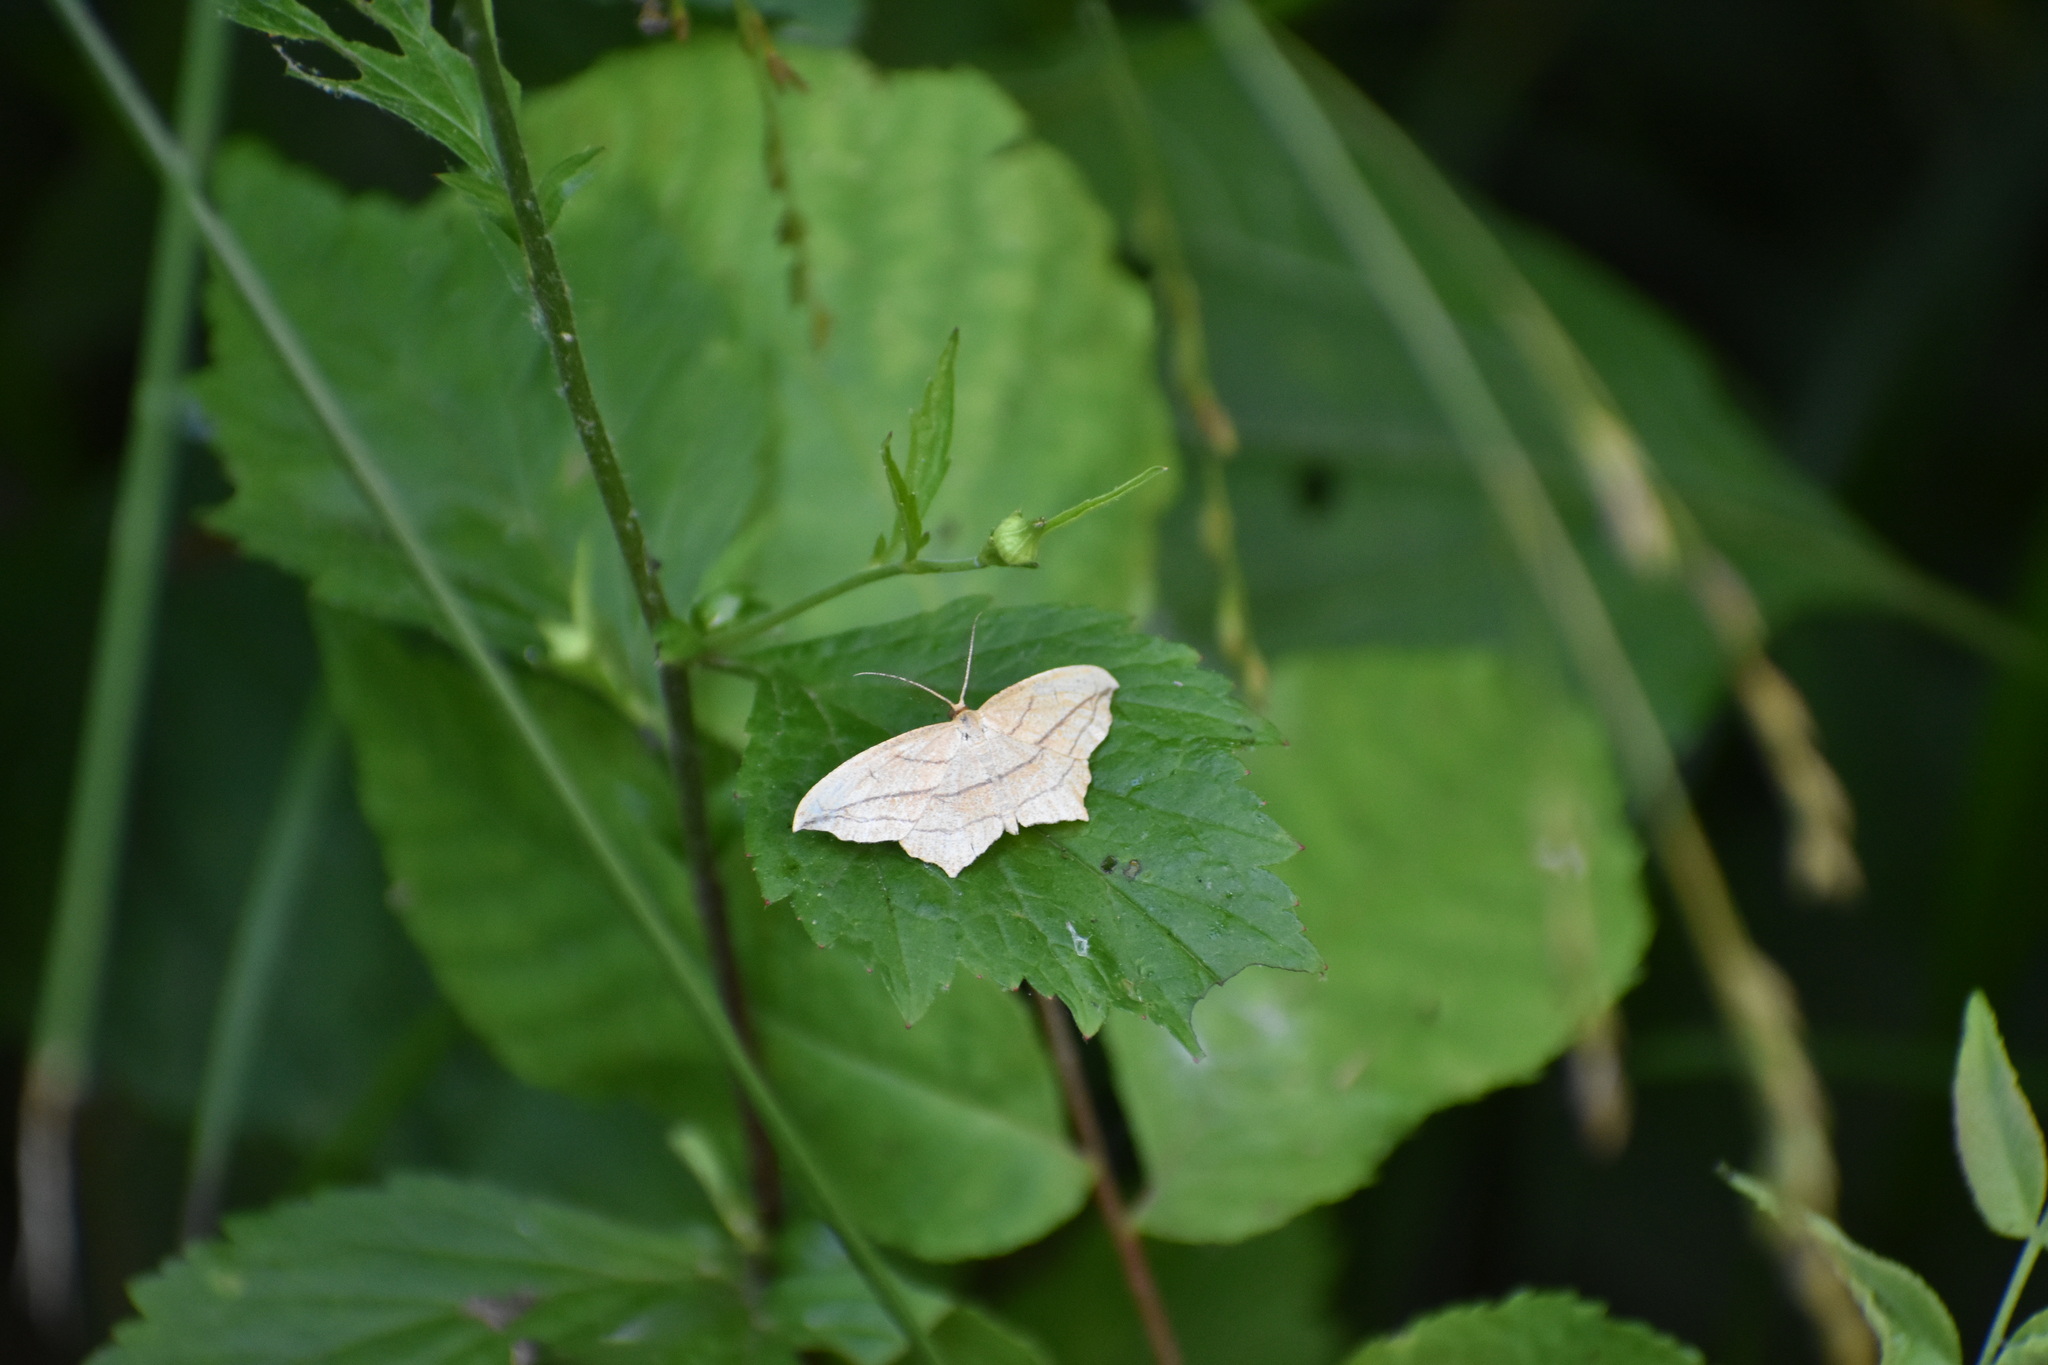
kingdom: Animalia
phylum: Arthropoda
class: Insecta
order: Lepidoptera
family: Geometridae
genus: Timandra
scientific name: Timandra amaturaria
